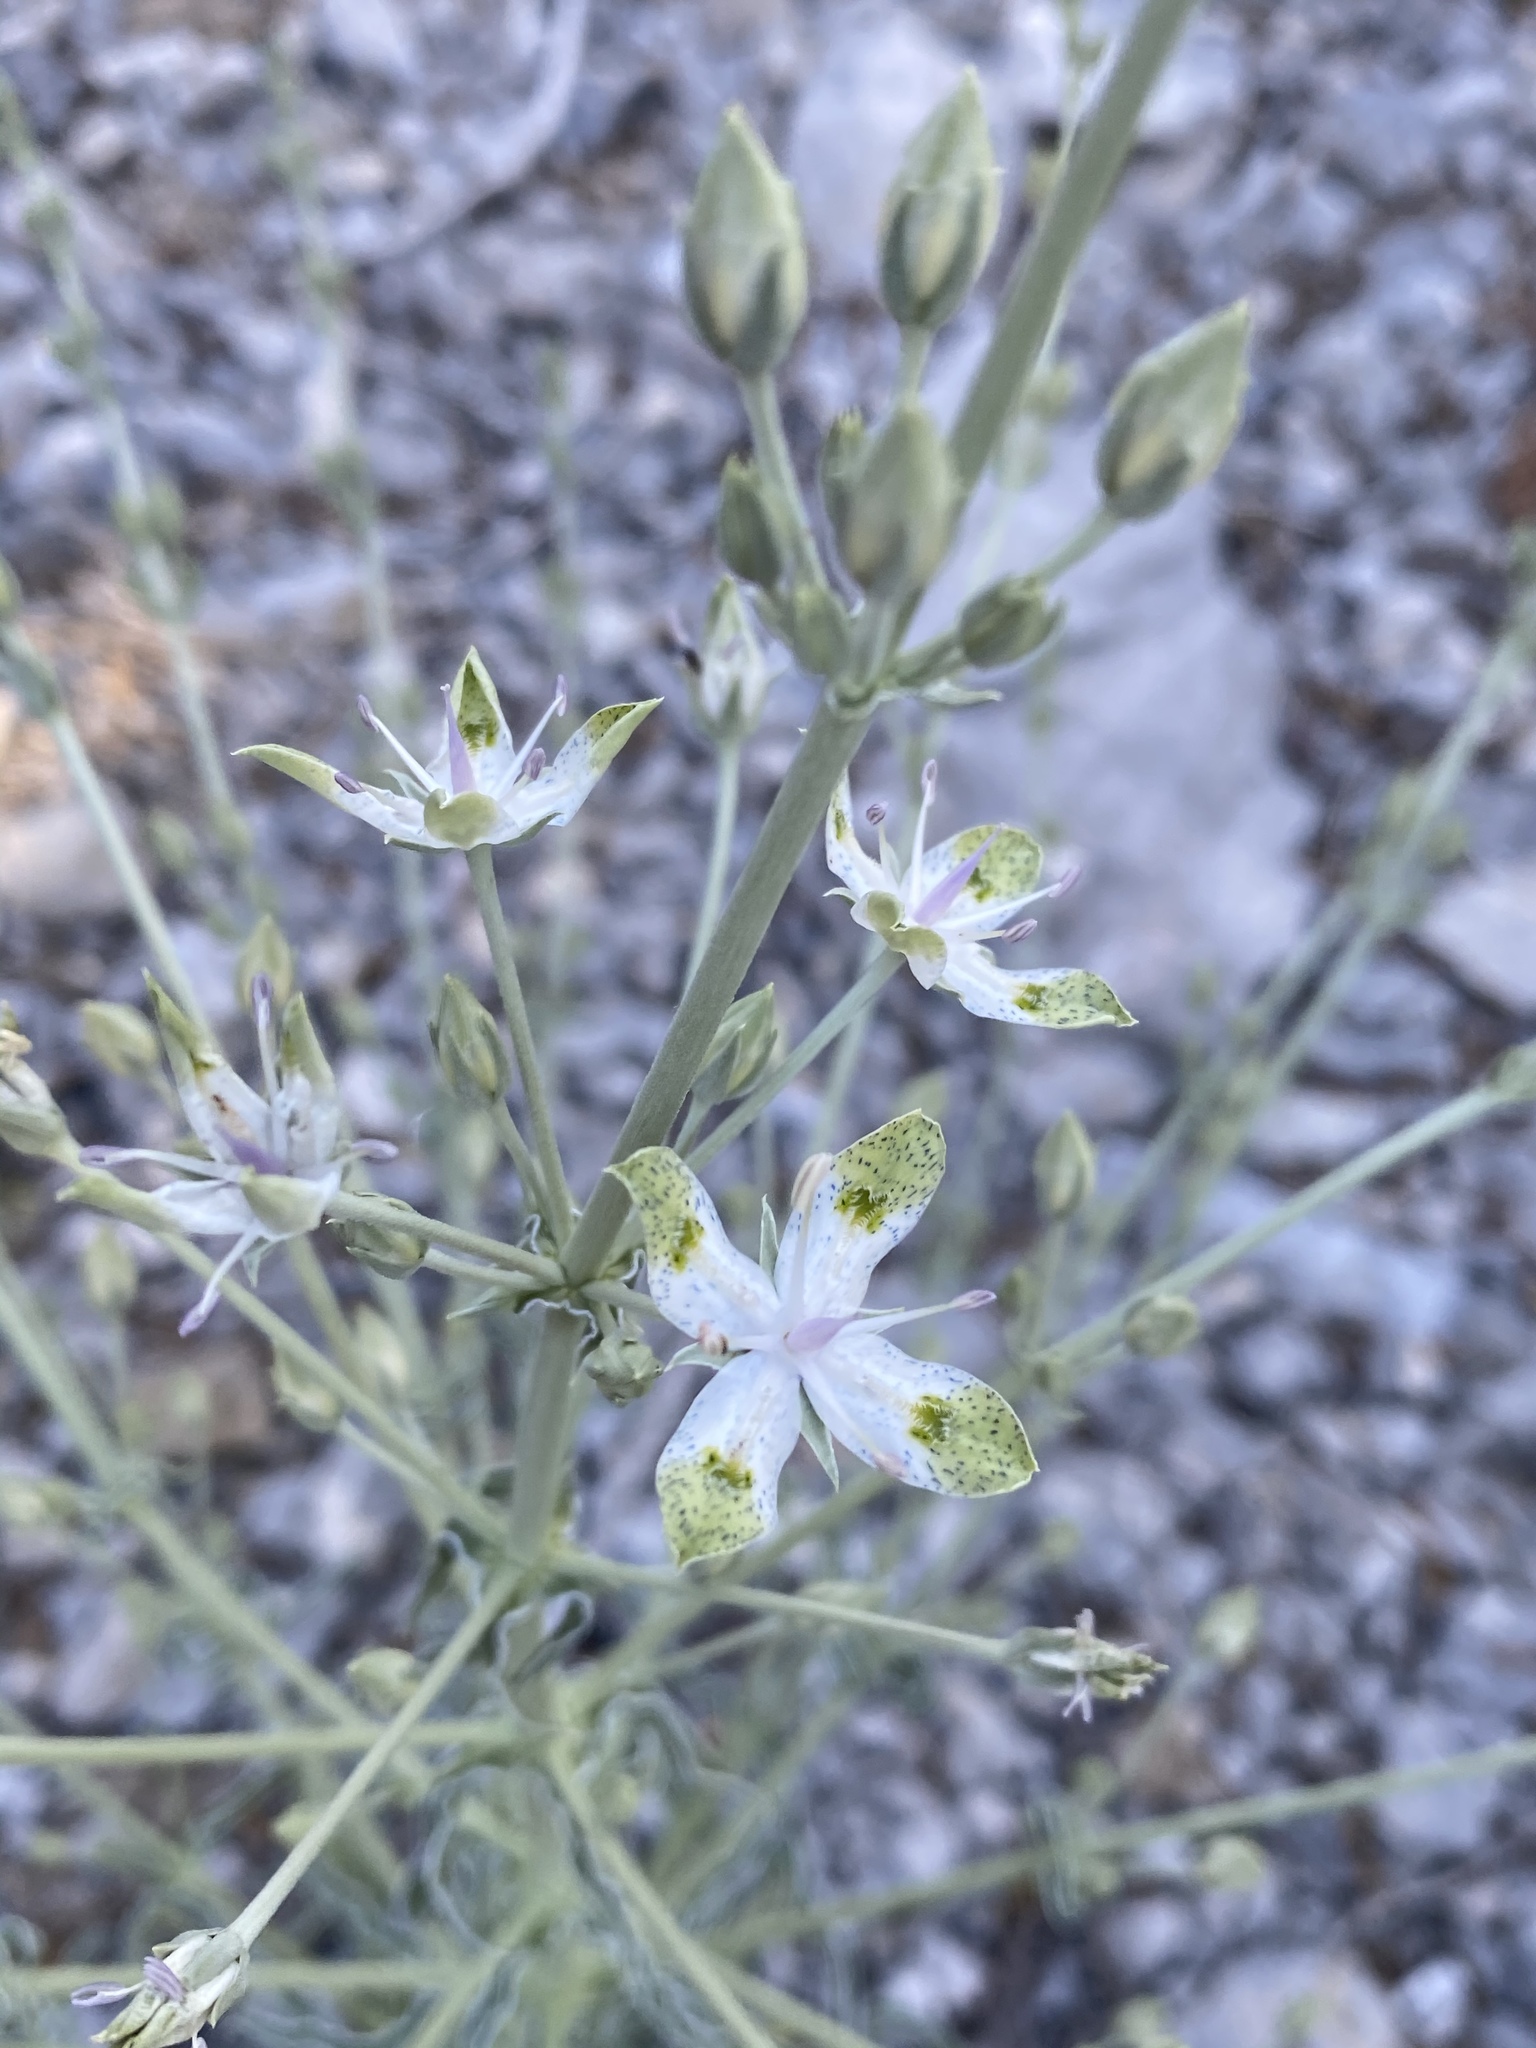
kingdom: Plantae
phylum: Tracheophyta
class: Magnoliopsida
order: Gentianales
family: Gentianaceae
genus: Frasera
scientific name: Frasera albomarginata
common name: Desert frasera
